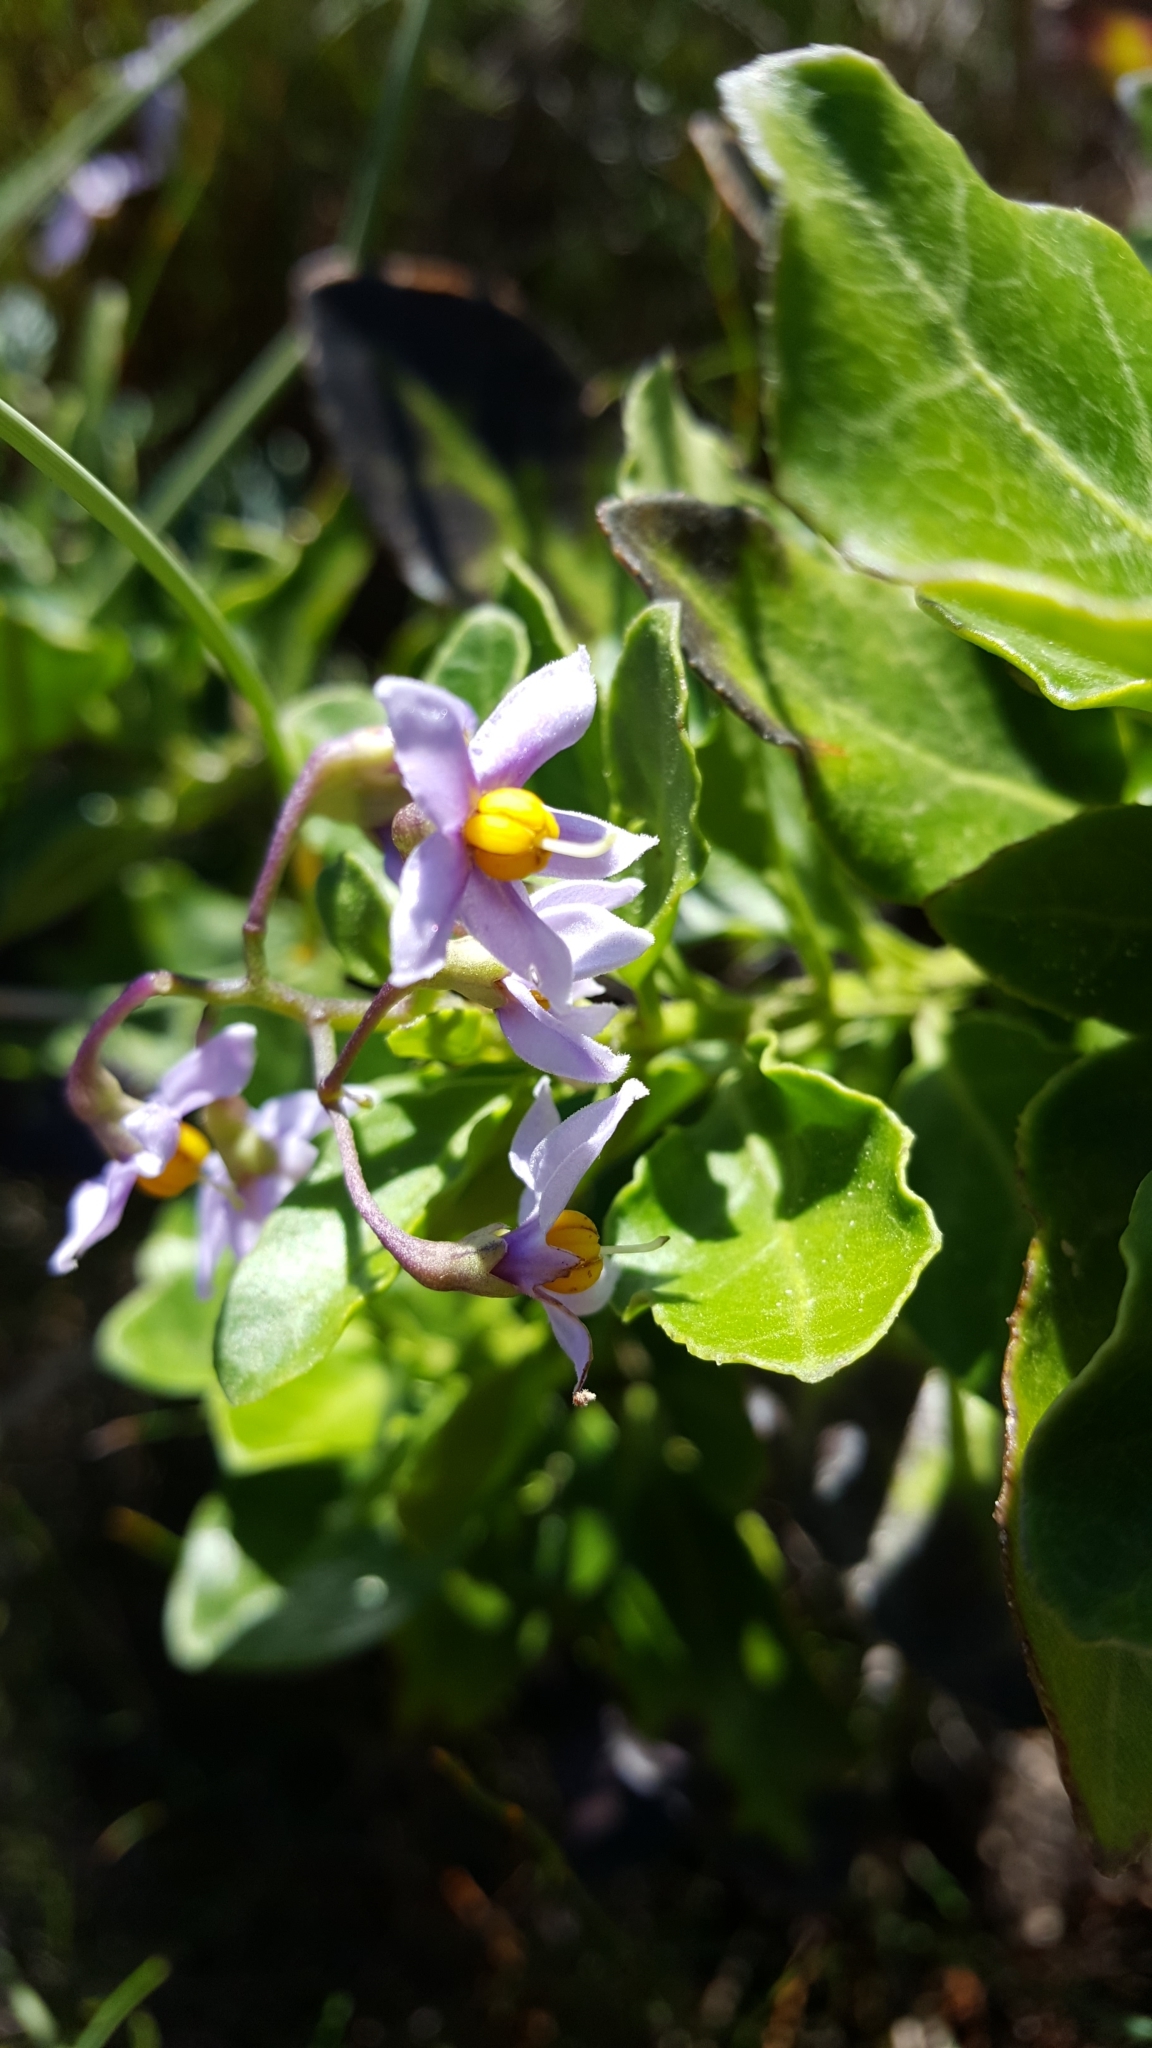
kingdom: Plantae
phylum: Tracheophyta
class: Magnoliopsida
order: Solanales
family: Solanaceae
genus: Solanum
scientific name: Solanum africanum
